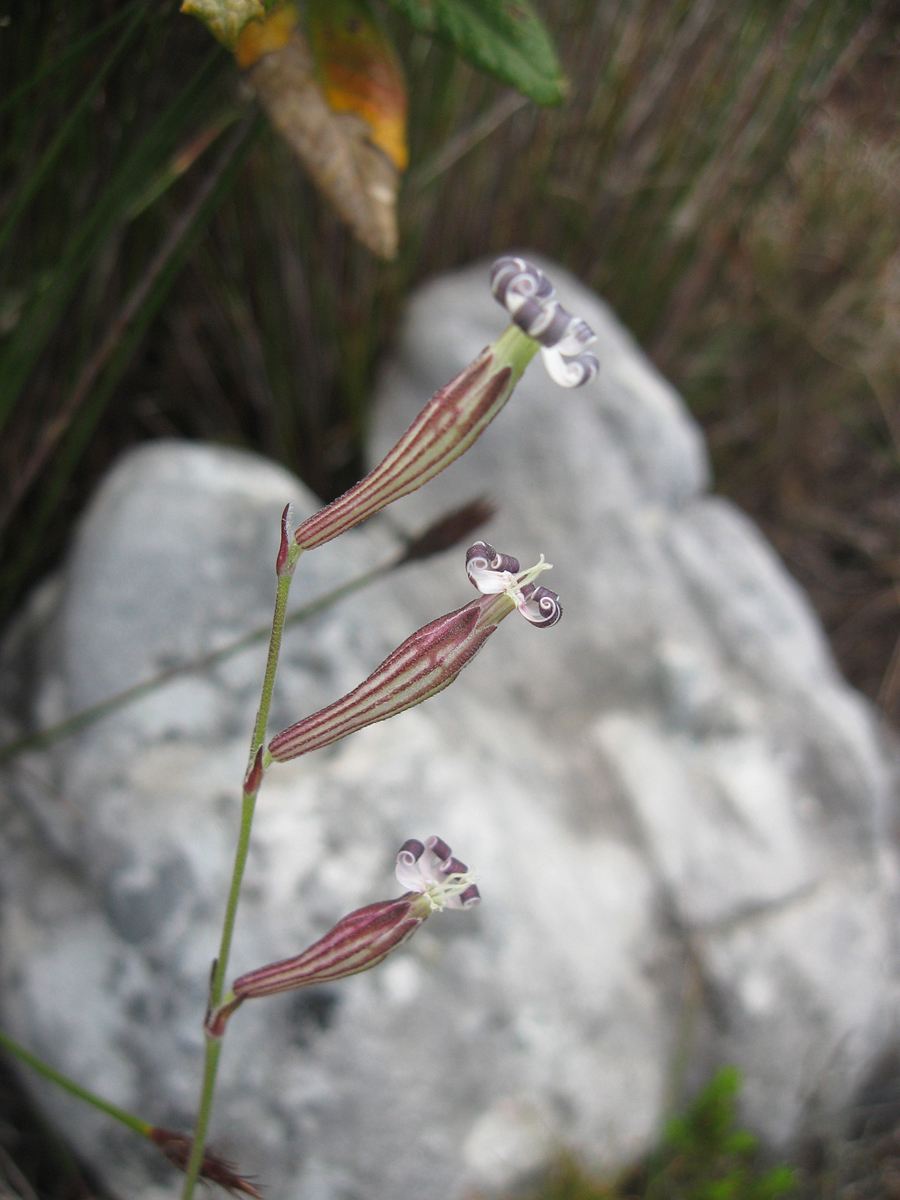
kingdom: Plantae
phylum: Tracheophyta
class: Magnoliopsida
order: Caryophyllales
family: Caryophyllaceae
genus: Silene
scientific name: Silene burchellii
